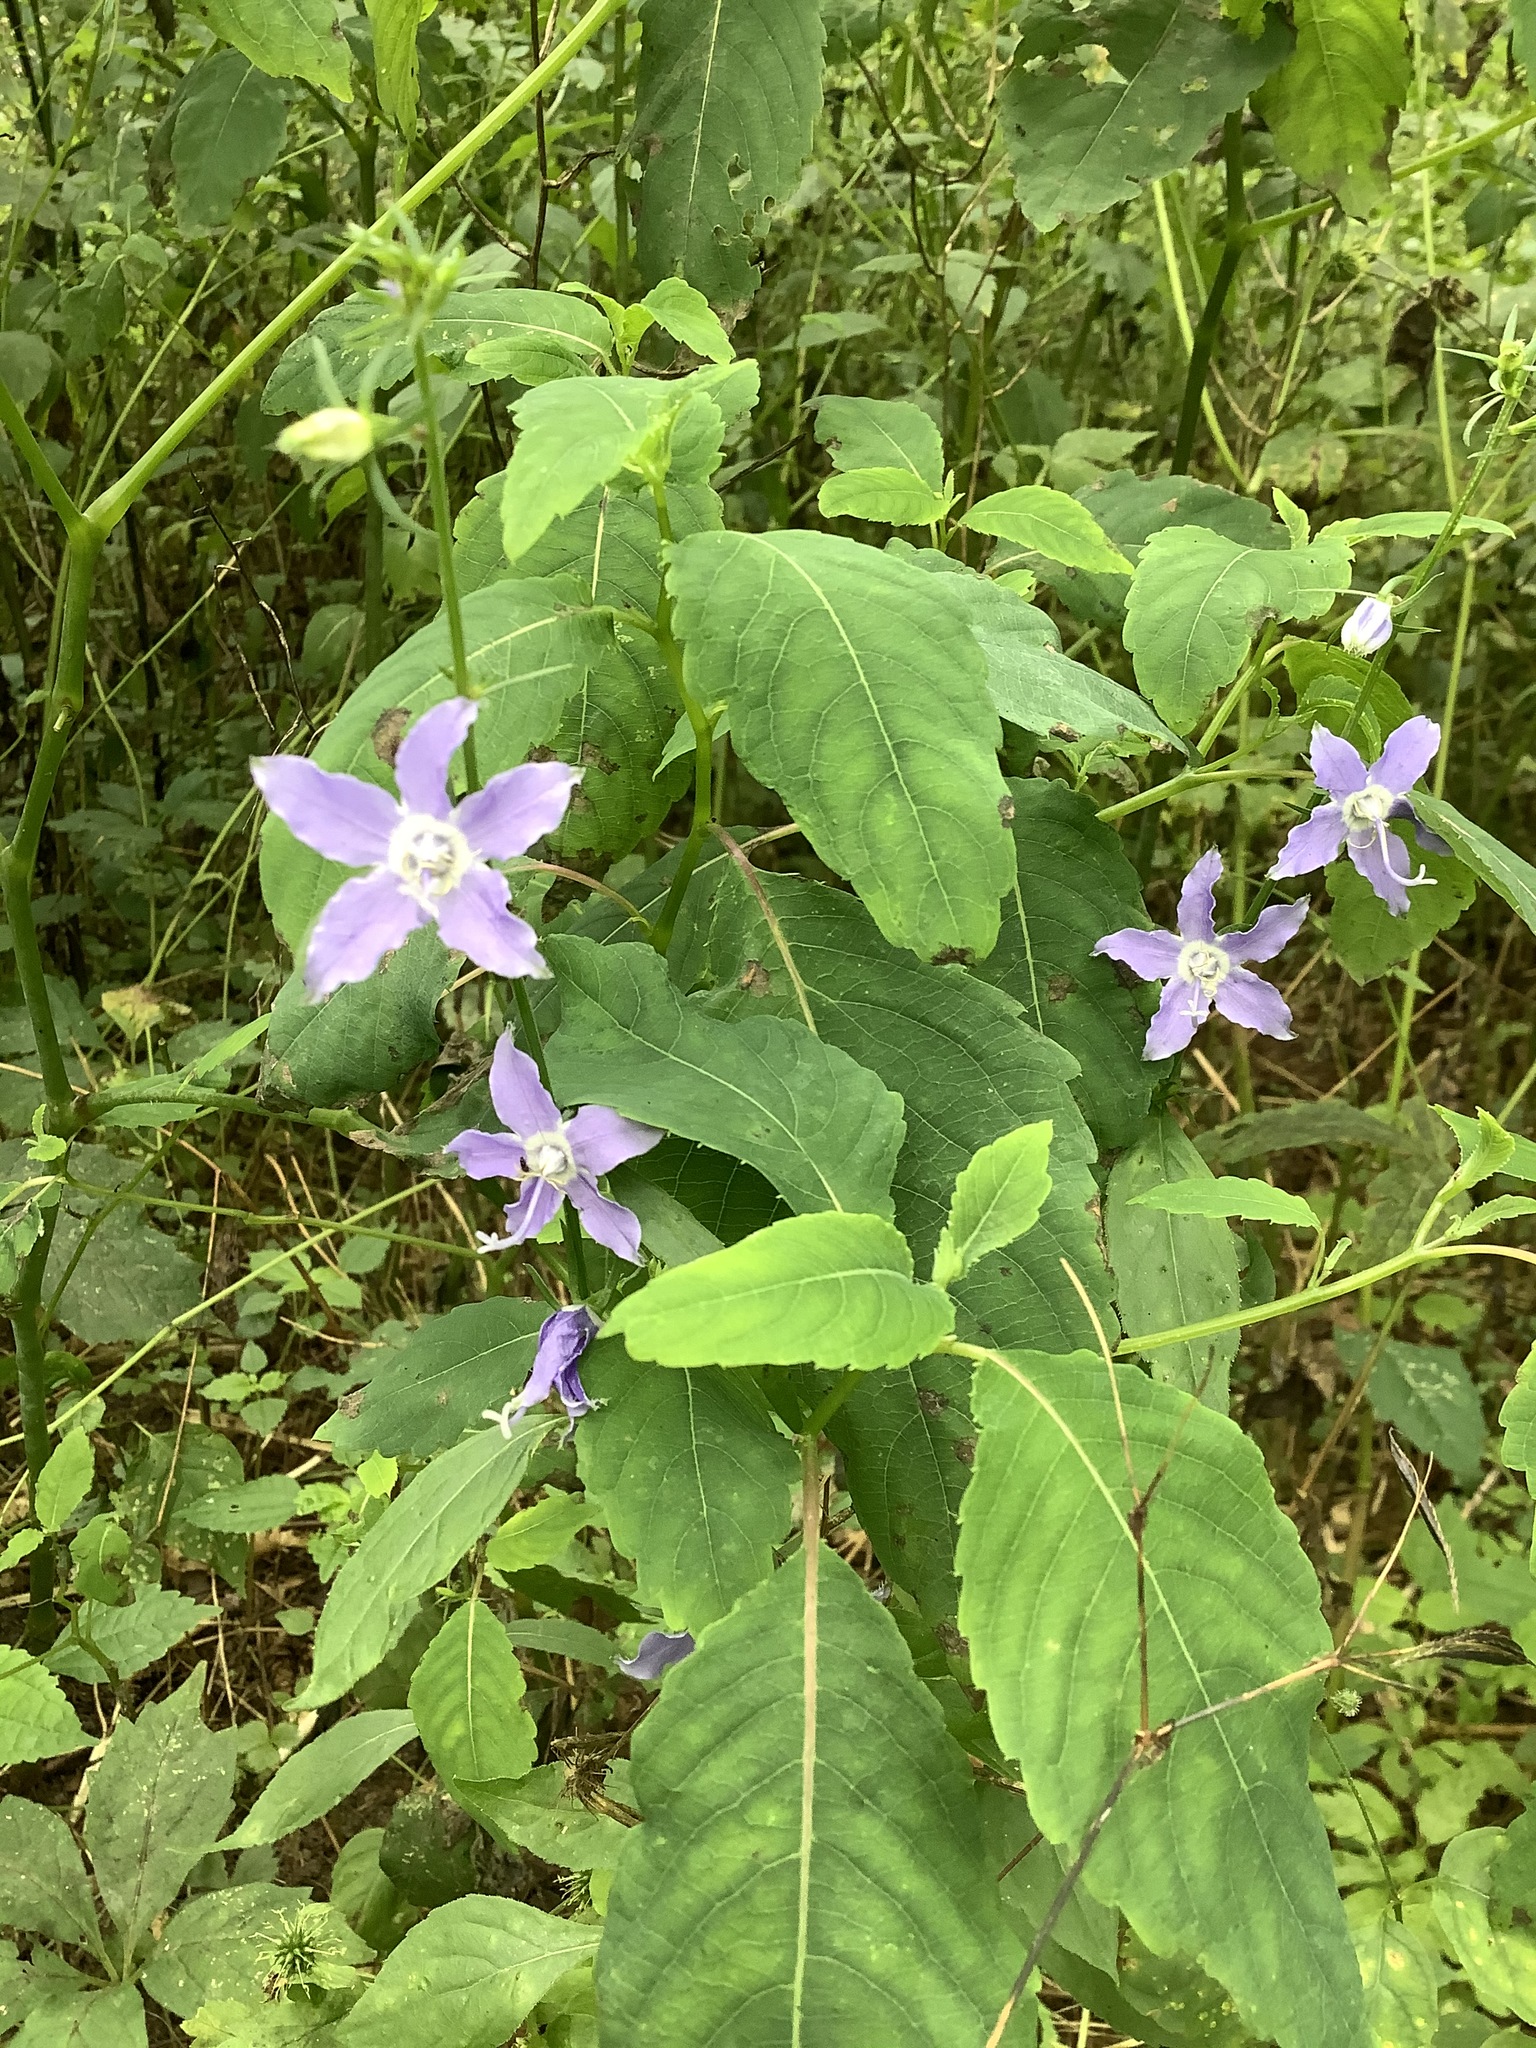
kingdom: Plantae
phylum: Tracheophyta
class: Magnoliopsida
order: Asterales
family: Campanulaceae
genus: Campanulastrum
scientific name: Campanulastrum americanum
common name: American bellflower
